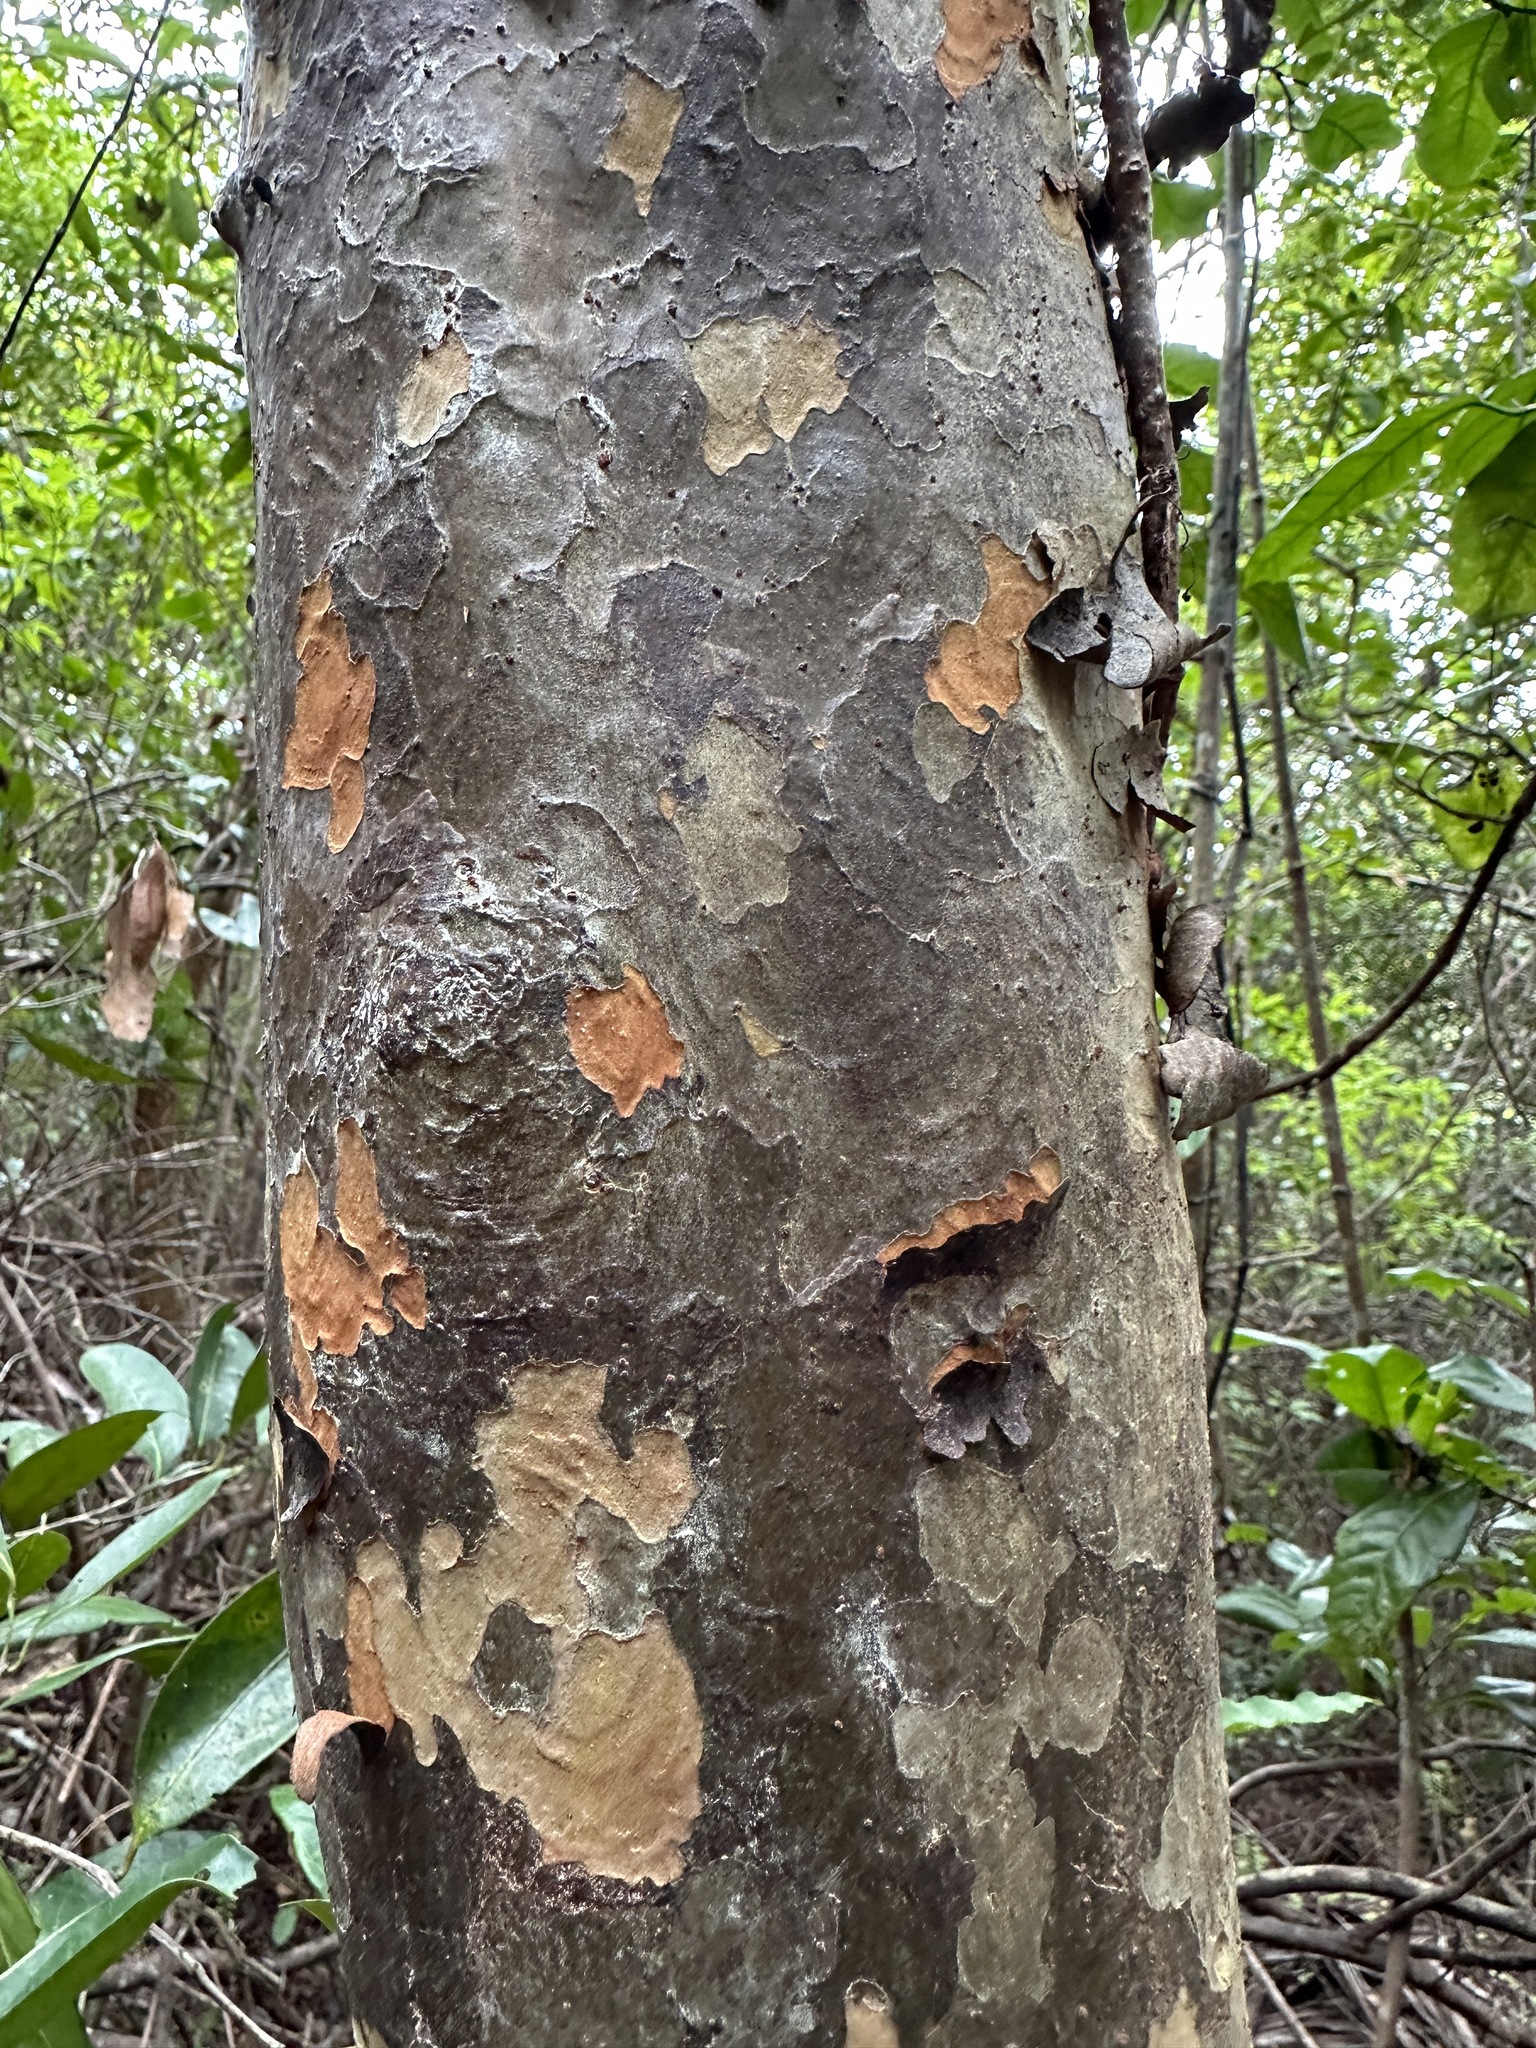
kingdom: Plantae
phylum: Tracheophyta
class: Magnoliopsida
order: Sapindales
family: Anacardiaceae
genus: Metopium
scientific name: Metopium toxiferum
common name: Florida poisontree
